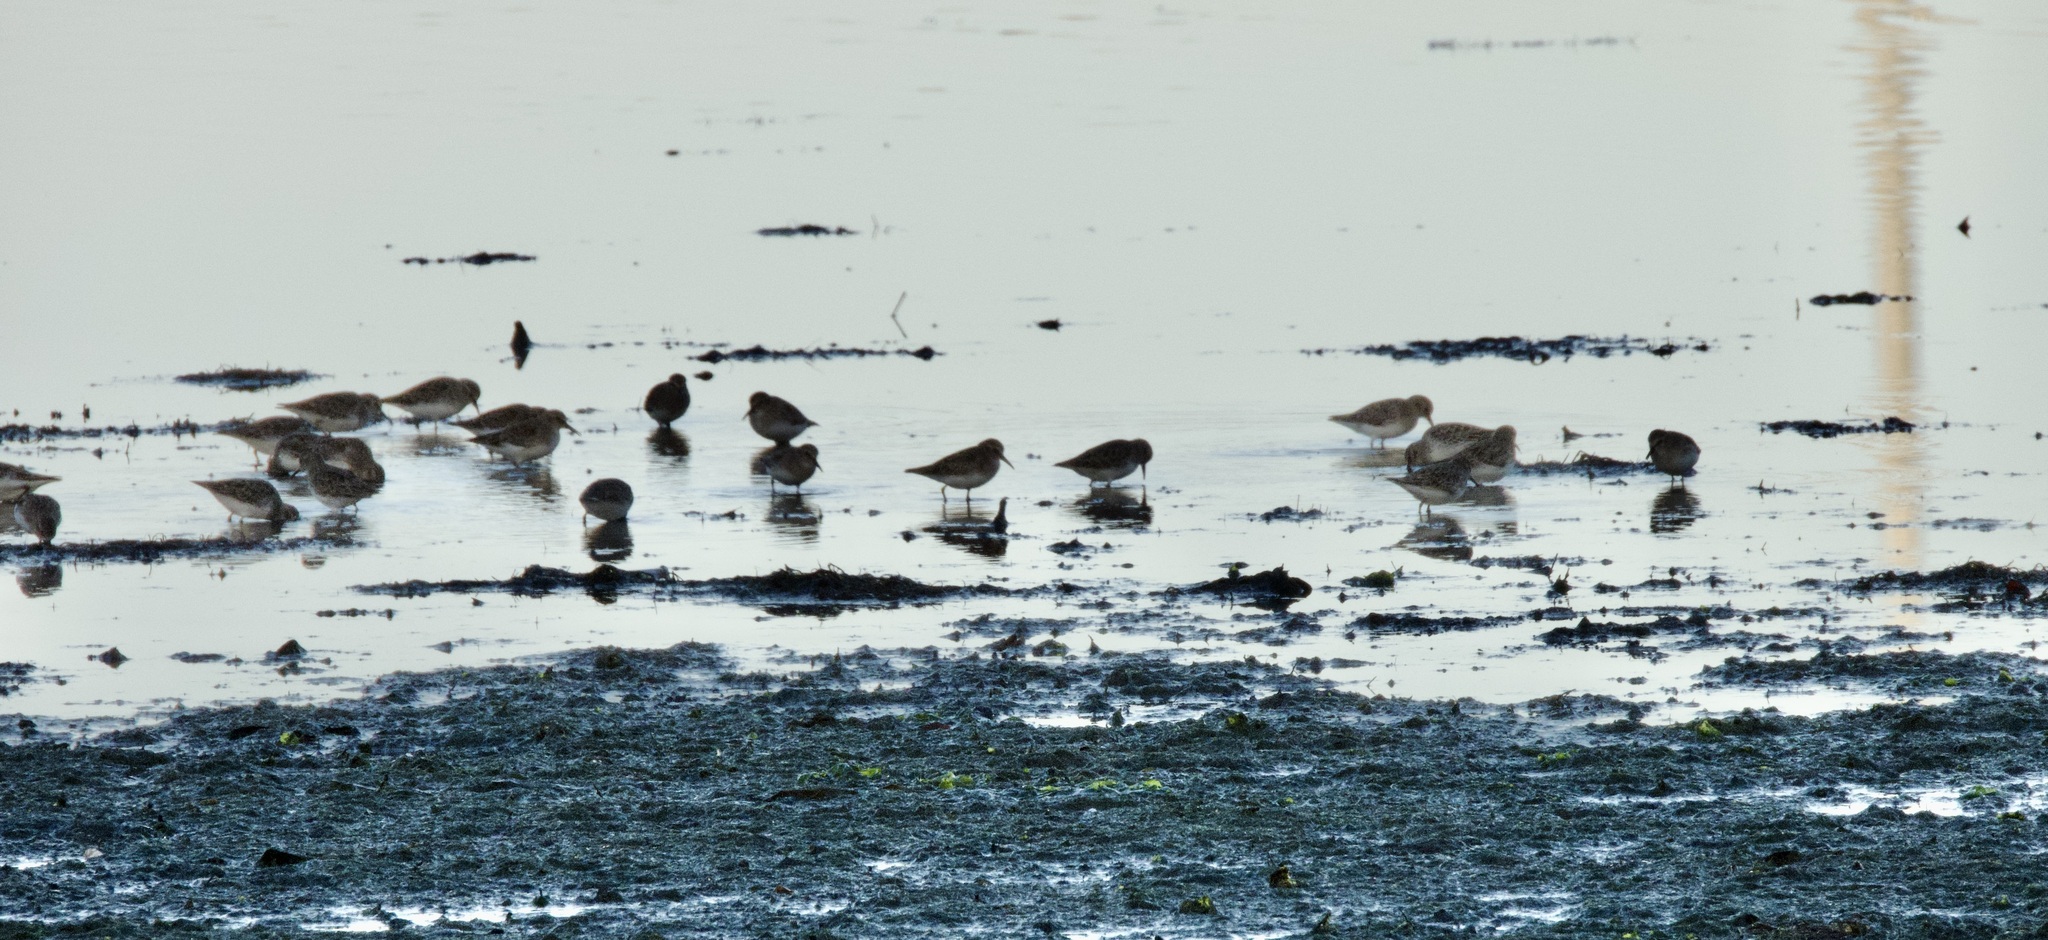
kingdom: Animalia
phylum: Chordata
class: Aves
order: Charadriiformes
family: Scolopacidae
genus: Calidris
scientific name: Calidris alpina
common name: Dunlin
